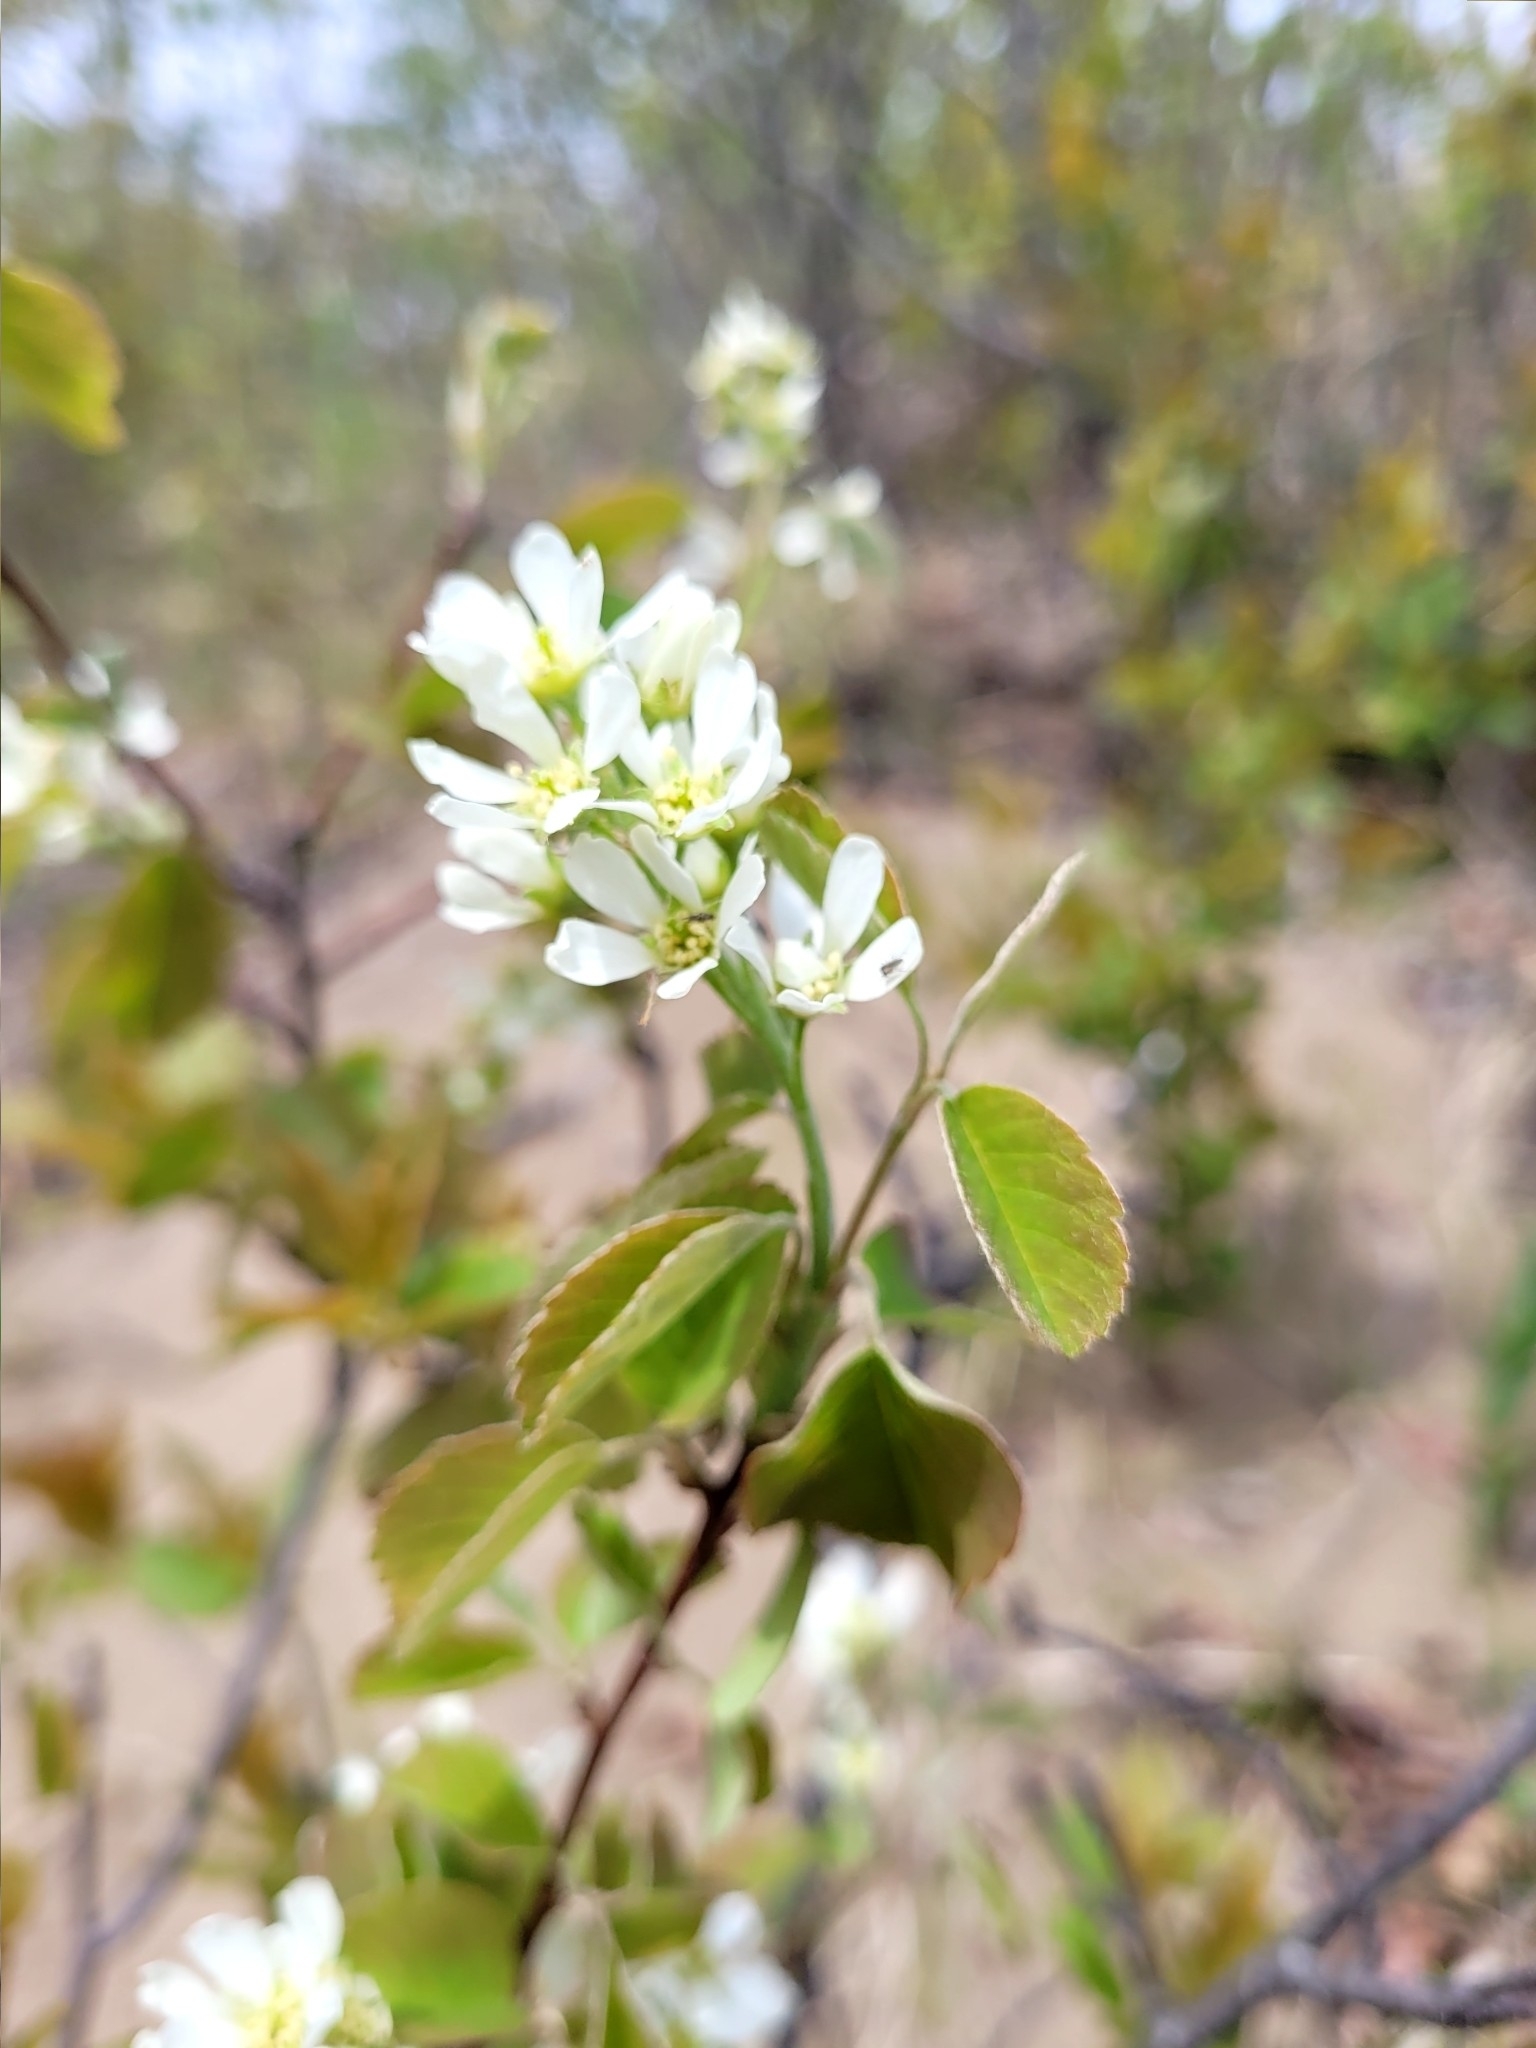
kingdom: Plantae
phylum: Tracheophyta
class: Magnoliopsida
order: Rosales
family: Rosaceae
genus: Amelanchier
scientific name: Amelanchier alnifolia
